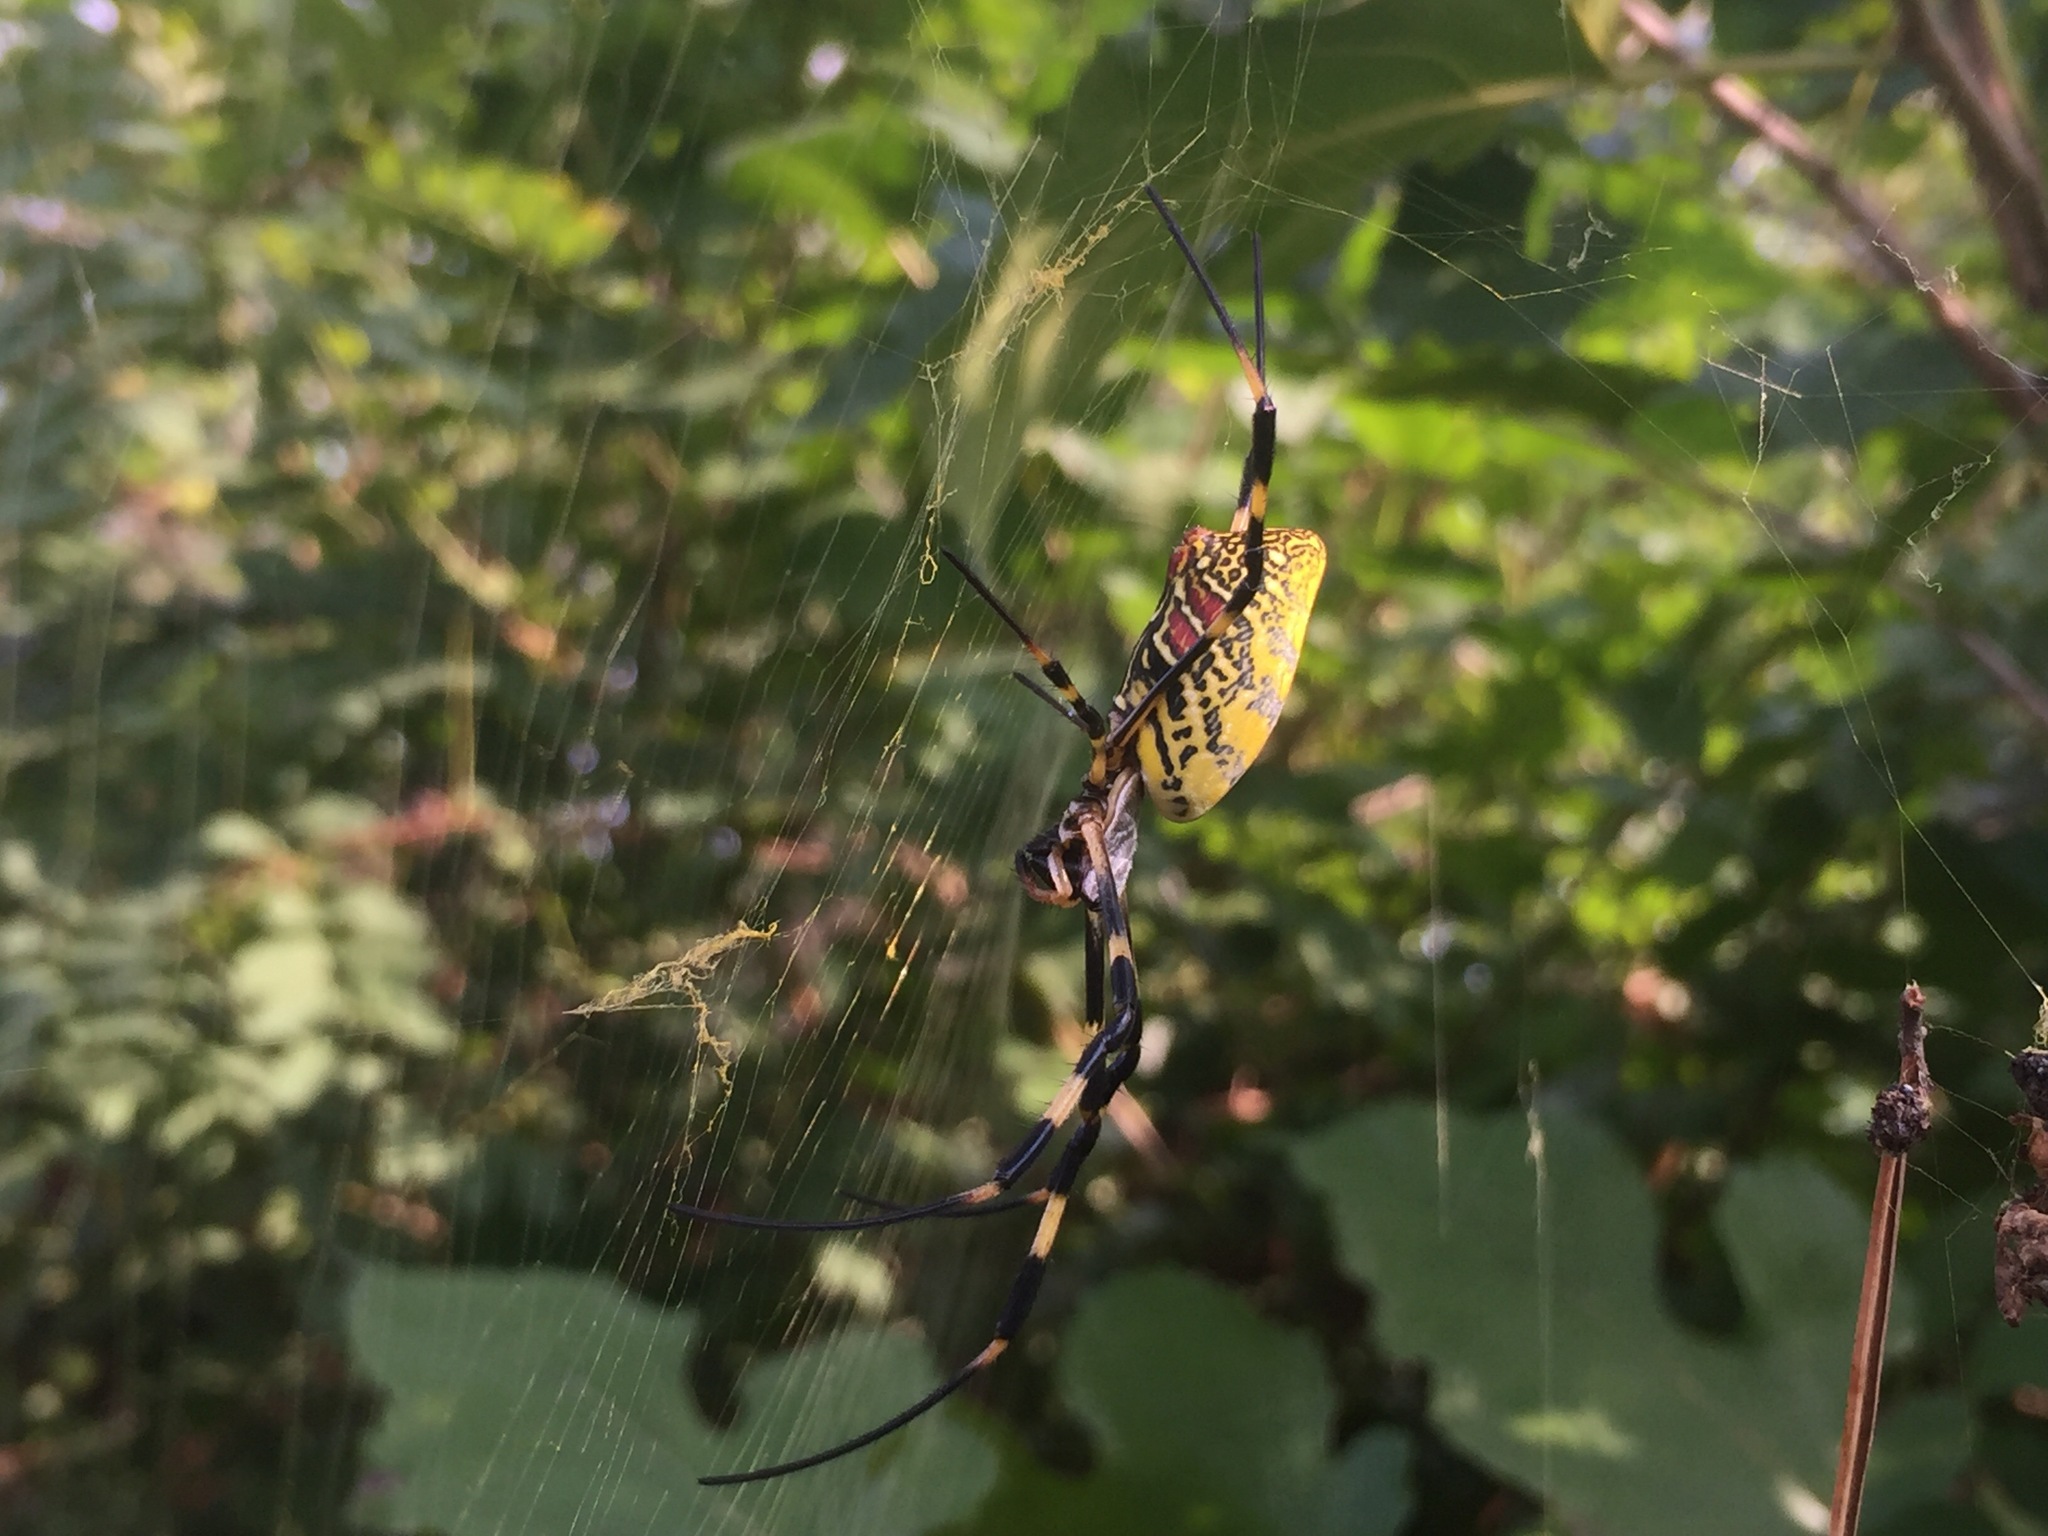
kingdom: Animalia
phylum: Arthropoda
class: Arachnida
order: Araneae
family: Araneidae
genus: Trichonephila
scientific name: Trichonephila clavata
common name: Jorō spider
